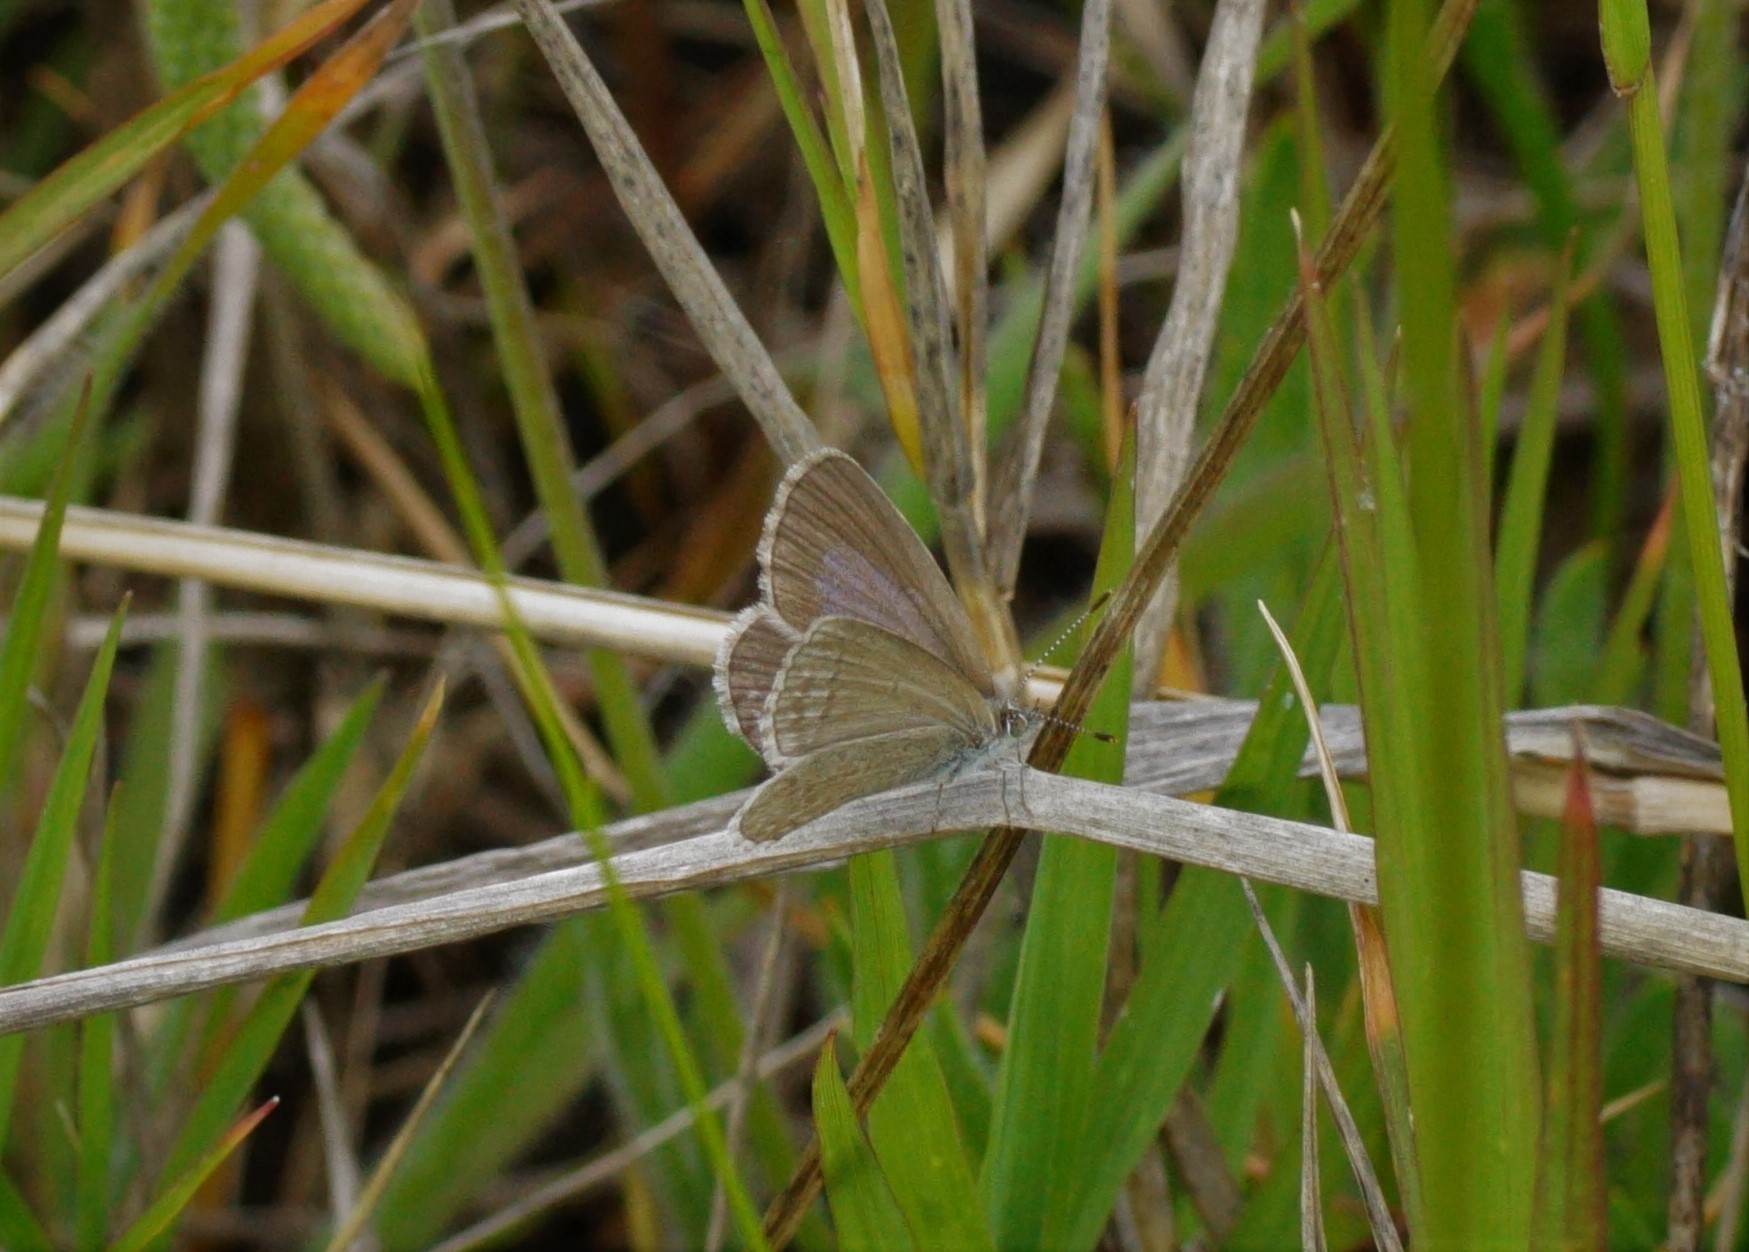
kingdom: Animalia
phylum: Arthropoda
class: Insecta
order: Lepidoptera
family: Lycaenidae
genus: Zizina
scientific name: Zizina otis
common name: Lesser grass blue
